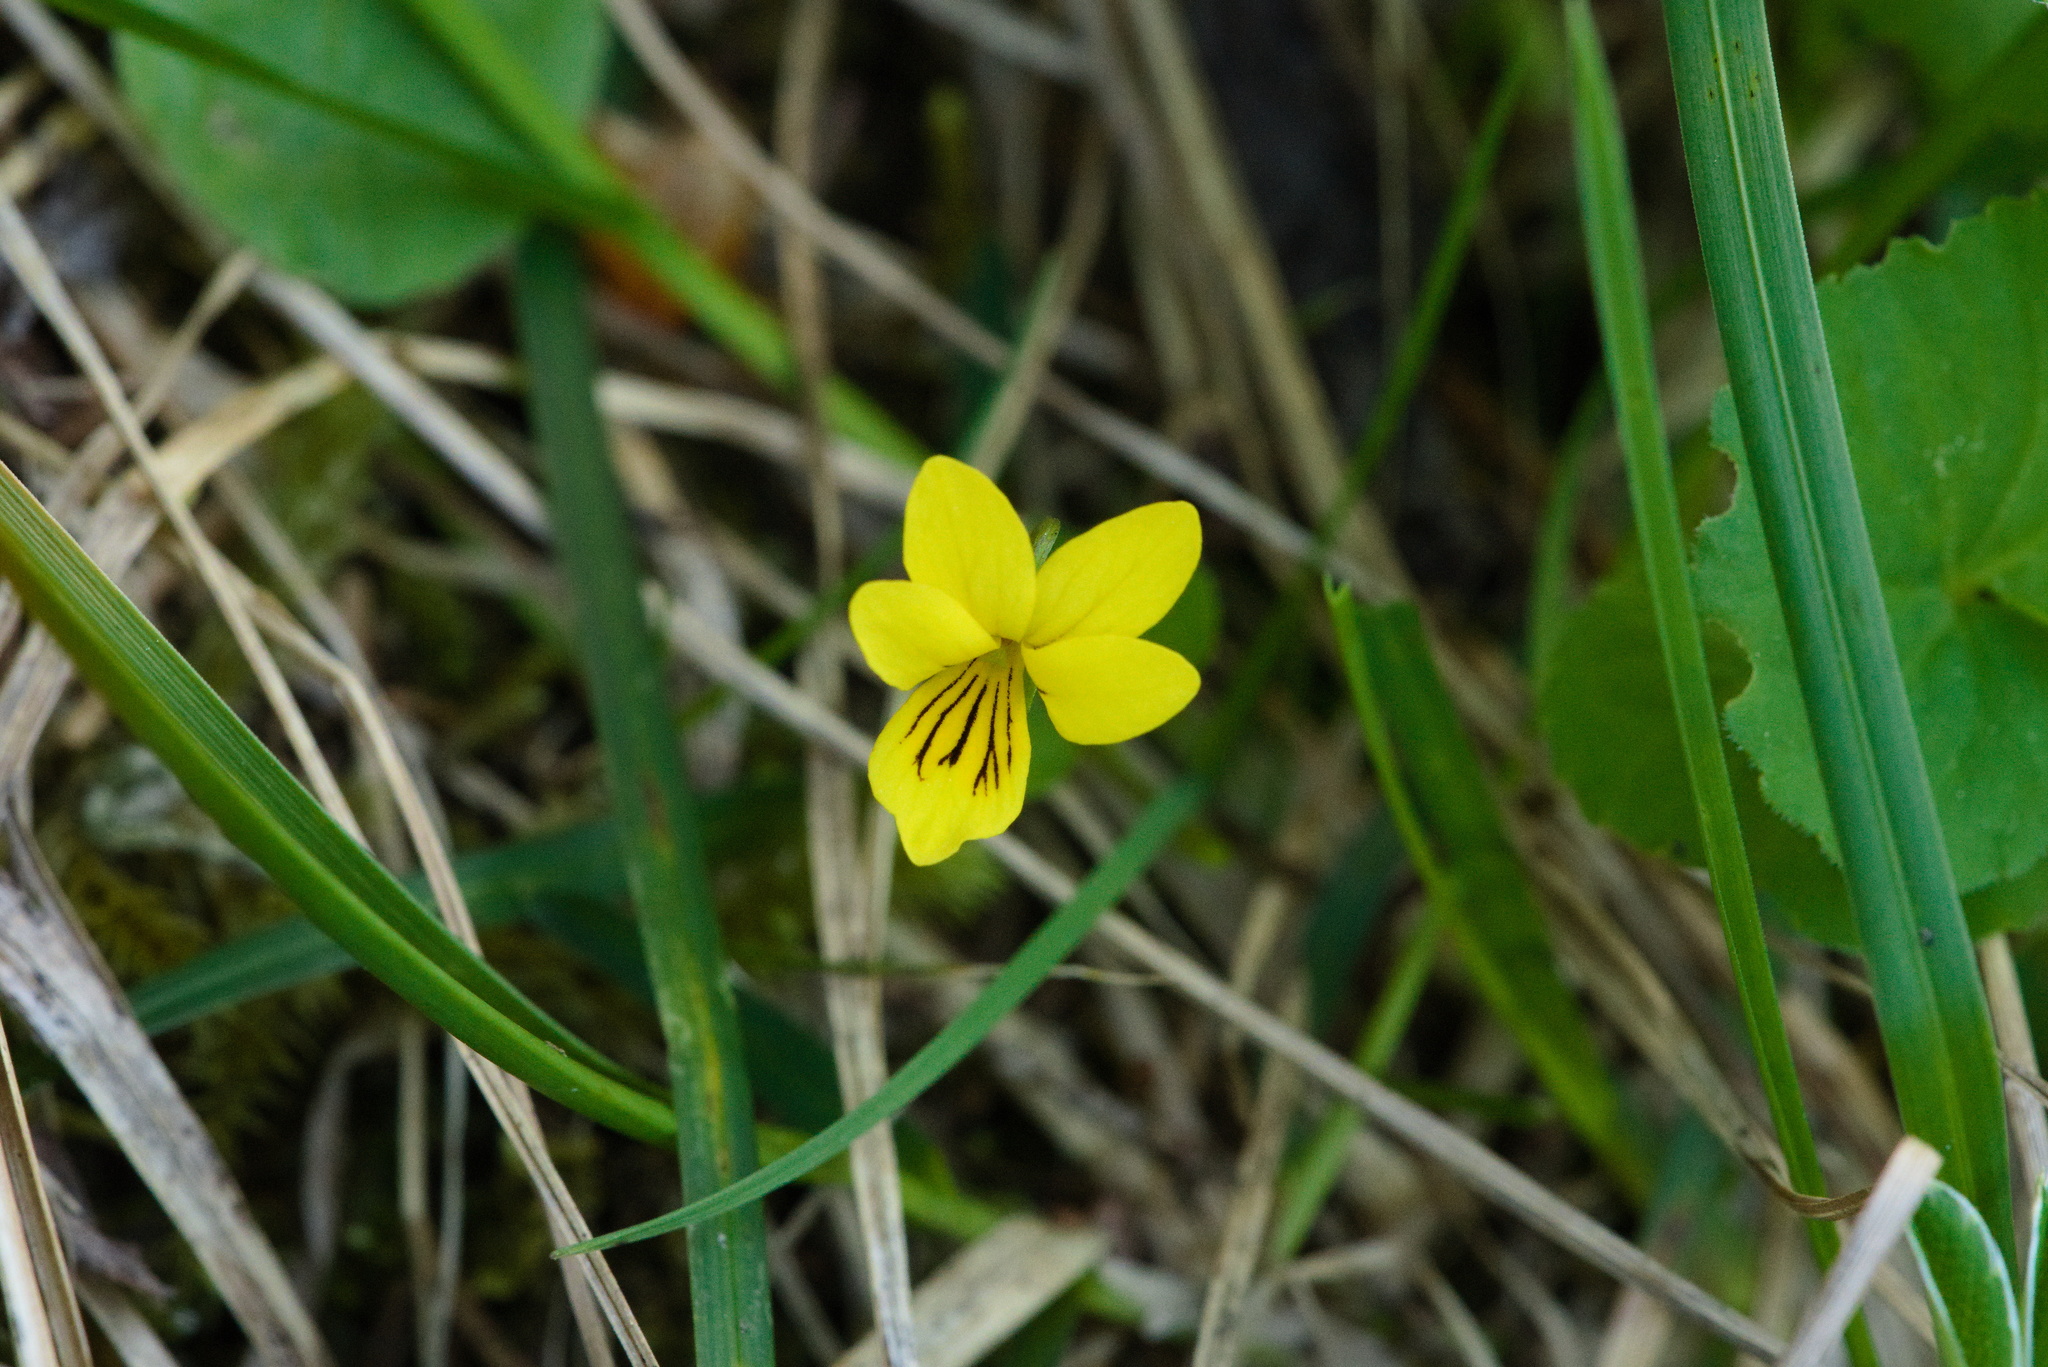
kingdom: Plantae
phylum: Tracheophyta
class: Magnoliopsida
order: Malpighiales
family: Violaceae
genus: Viola
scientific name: Viola biflora
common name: Alpine yellow violet
